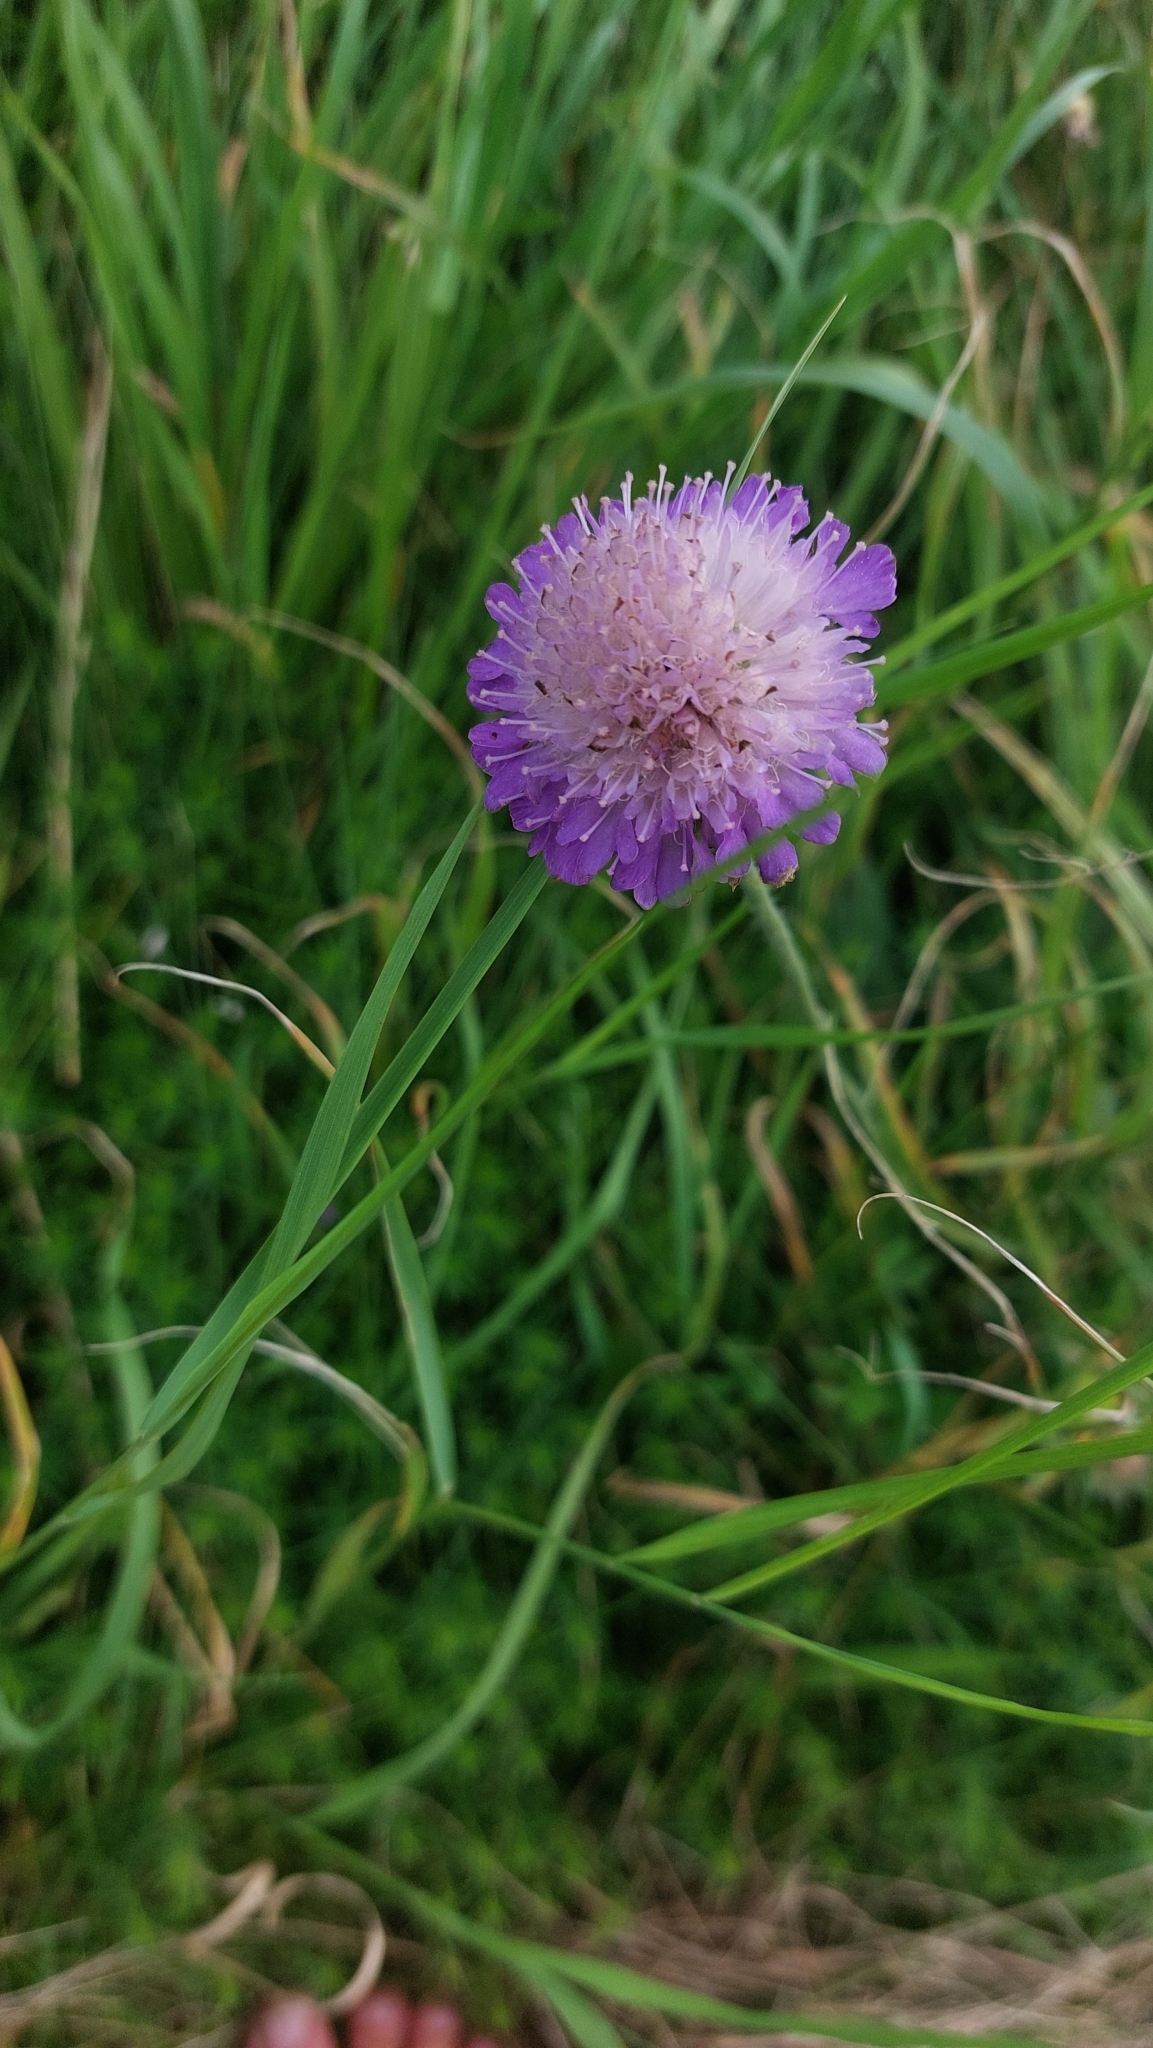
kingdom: Plantae
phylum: Tracheophyta
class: Magnoliopsida
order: Dipsacales
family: Caprifoliaceae
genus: Knautia
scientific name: Knautia arvensis
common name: Field scabiosa
